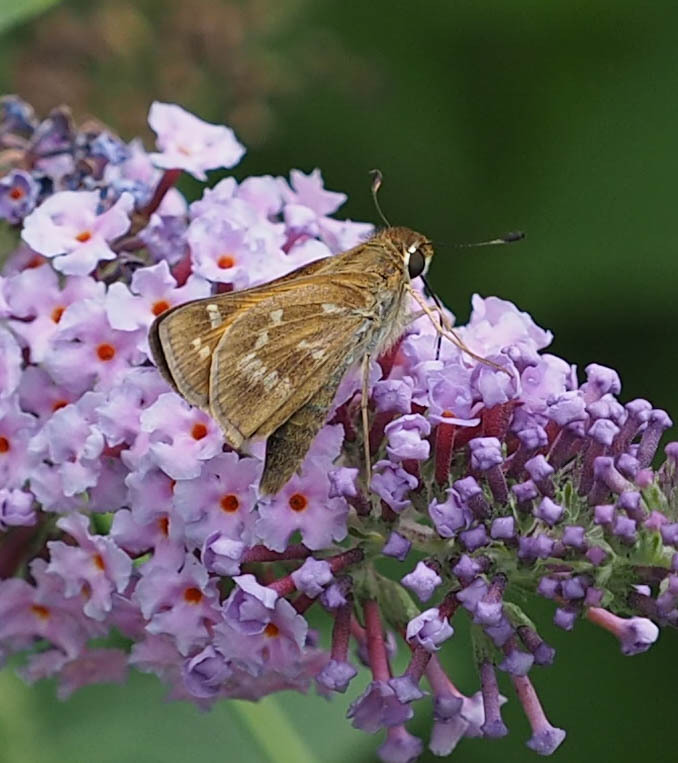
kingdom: Animalia
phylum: Arthropoda
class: Insecta
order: Lepidoptera
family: Hesperiidae
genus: Atalopedes
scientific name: Atalopedes
